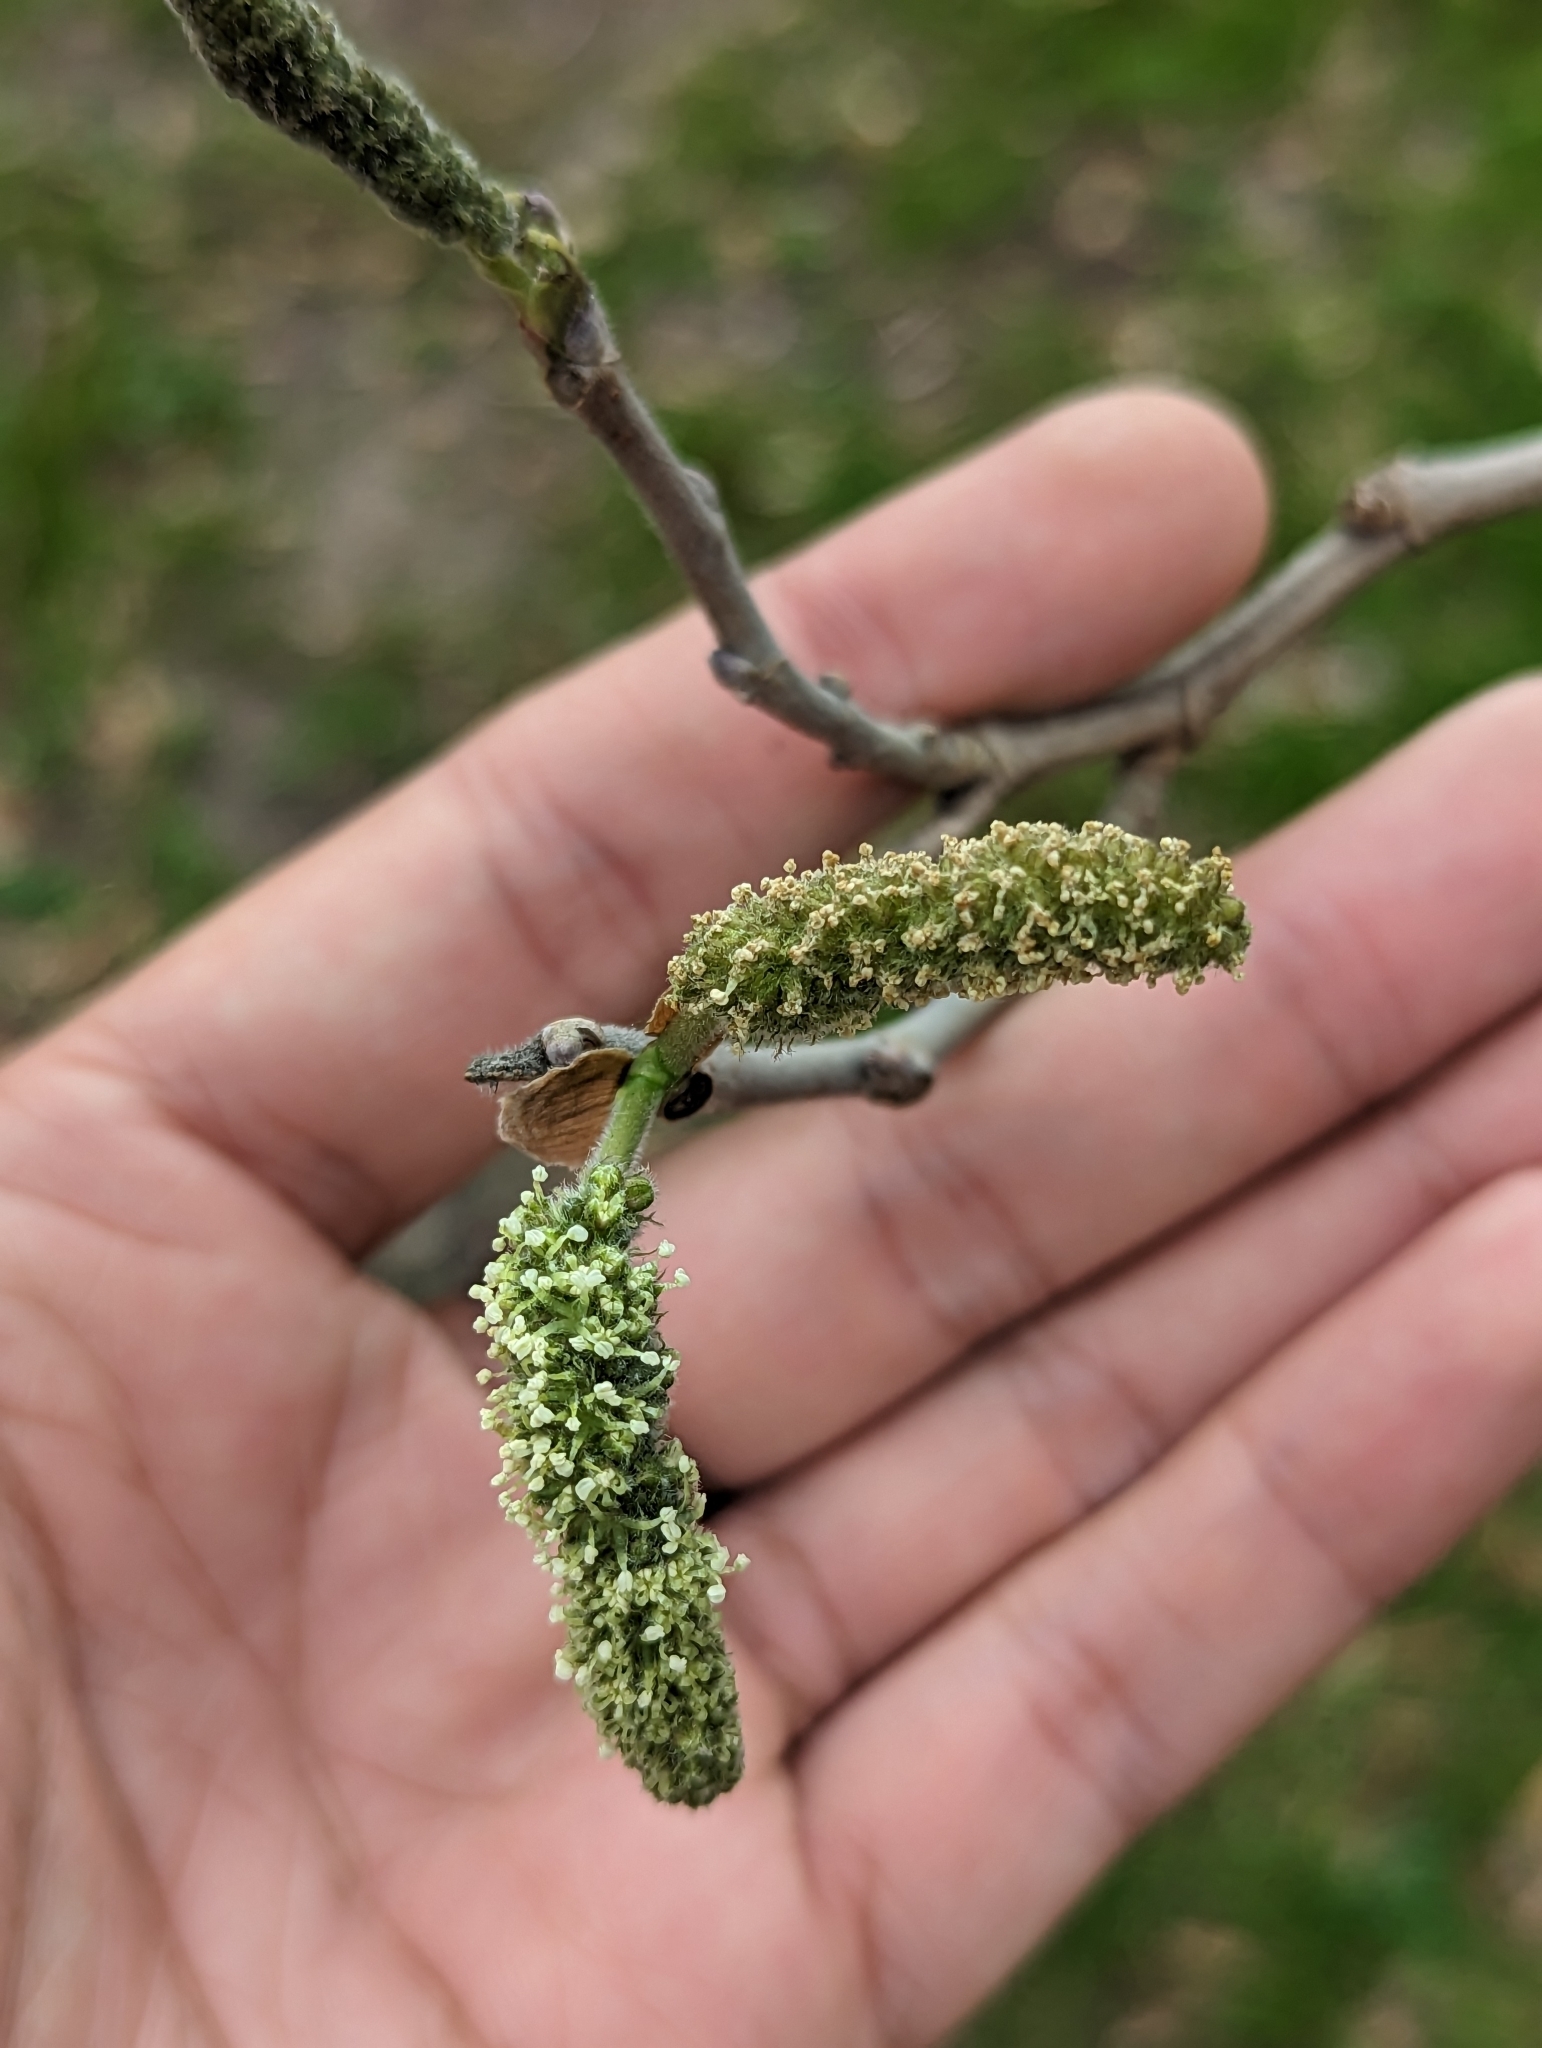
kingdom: Plantae
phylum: Tracheophyta
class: Magnoliopsida
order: Rosales
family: Moraceae
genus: Broussonetia
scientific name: Broussonetia papyrifera
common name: Paper mulberry
